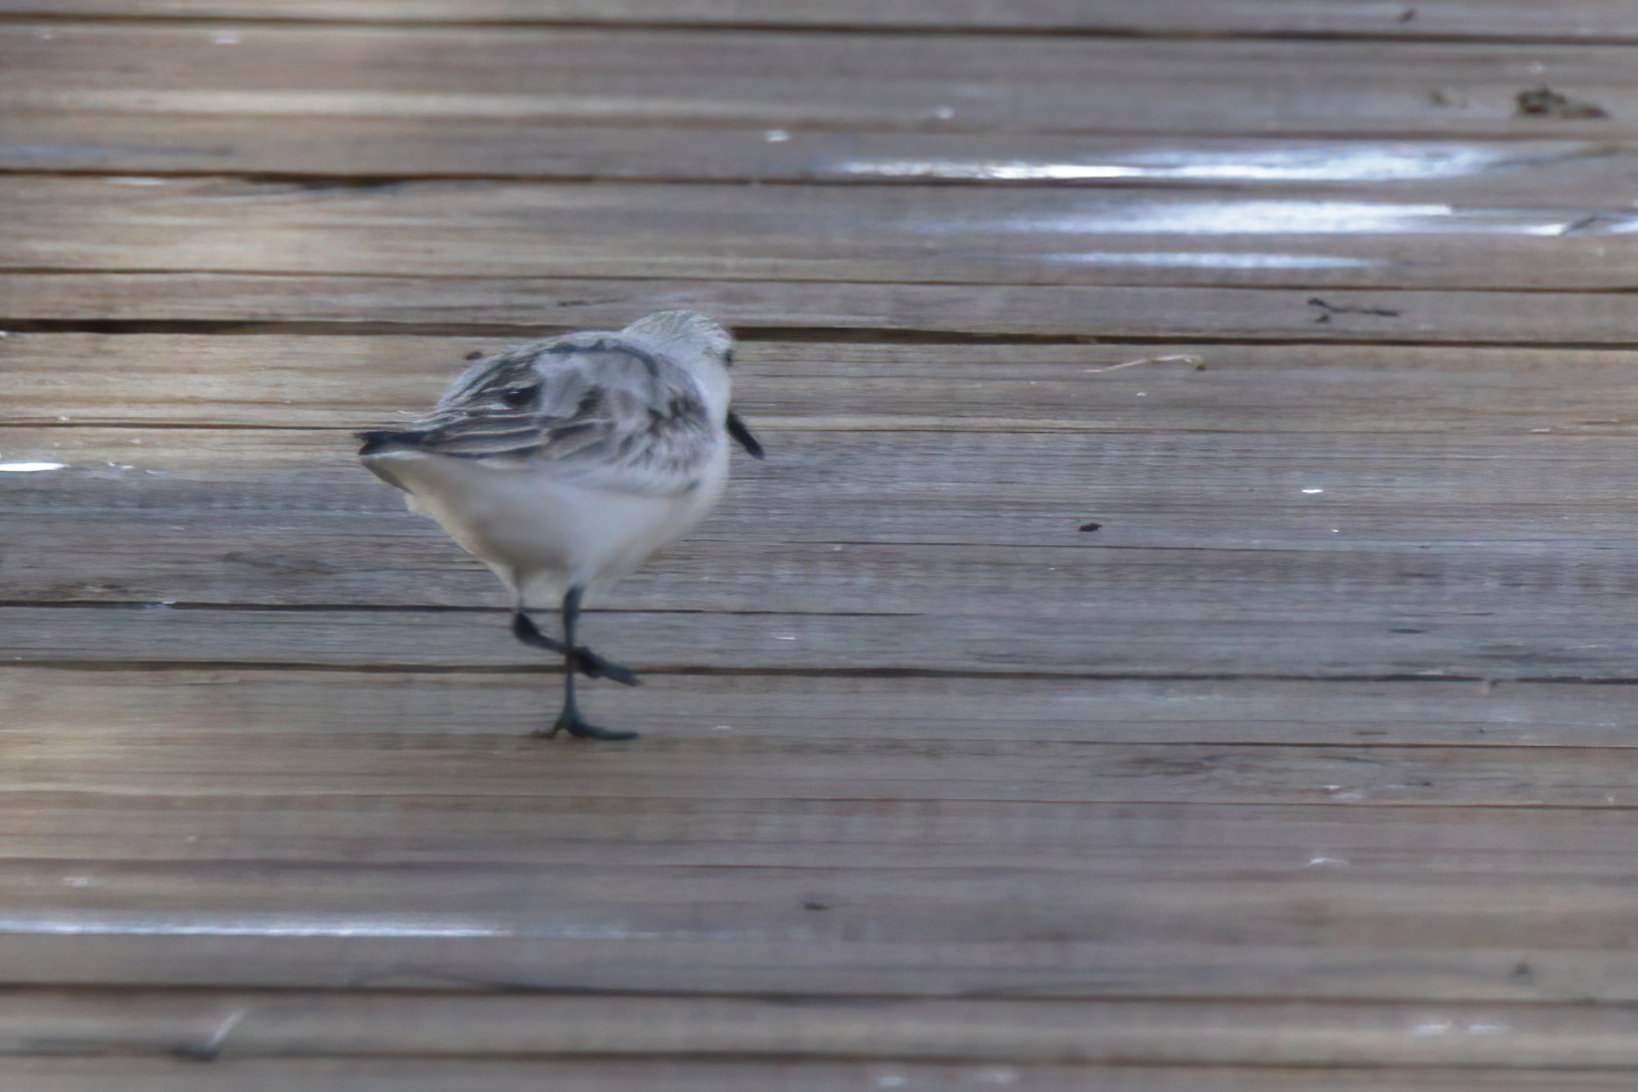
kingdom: Animalia
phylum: Chordata
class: Aves
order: Charadriiformes
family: Scolopacidae
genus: Calidris
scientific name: Calidris alba
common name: Sanderling
